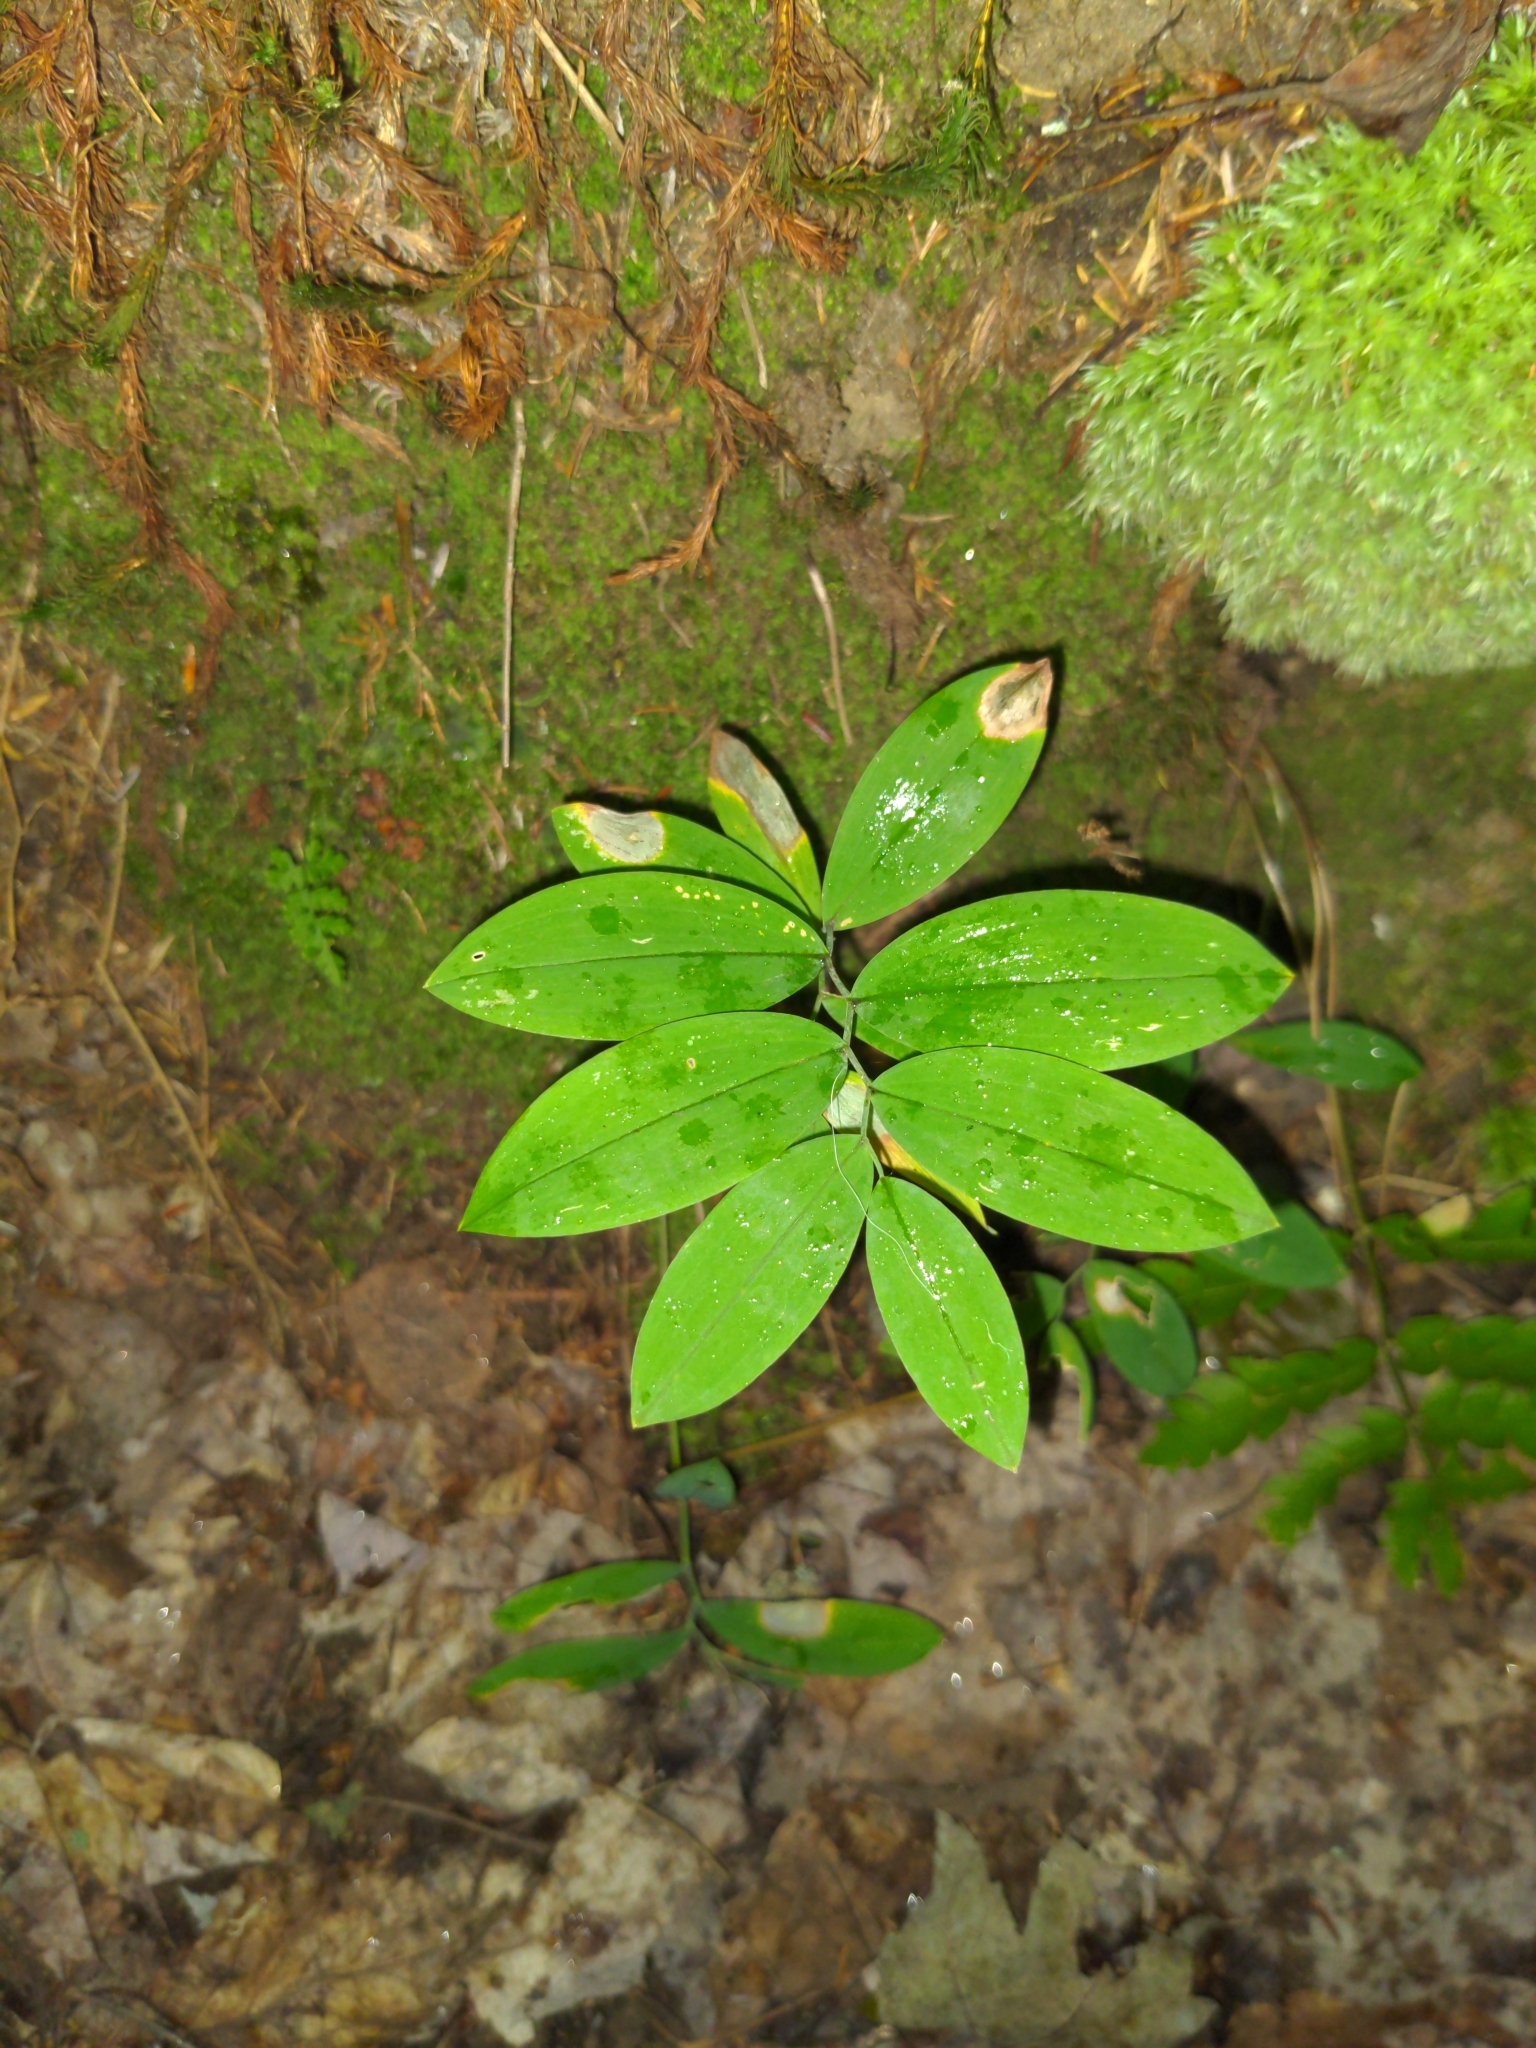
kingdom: Plantae
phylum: Tracheophyta
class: Liliopsida
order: Liliales
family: Colchicaceae
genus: Uvularia
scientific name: Uvularia sessilifolia
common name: Straw-lily
